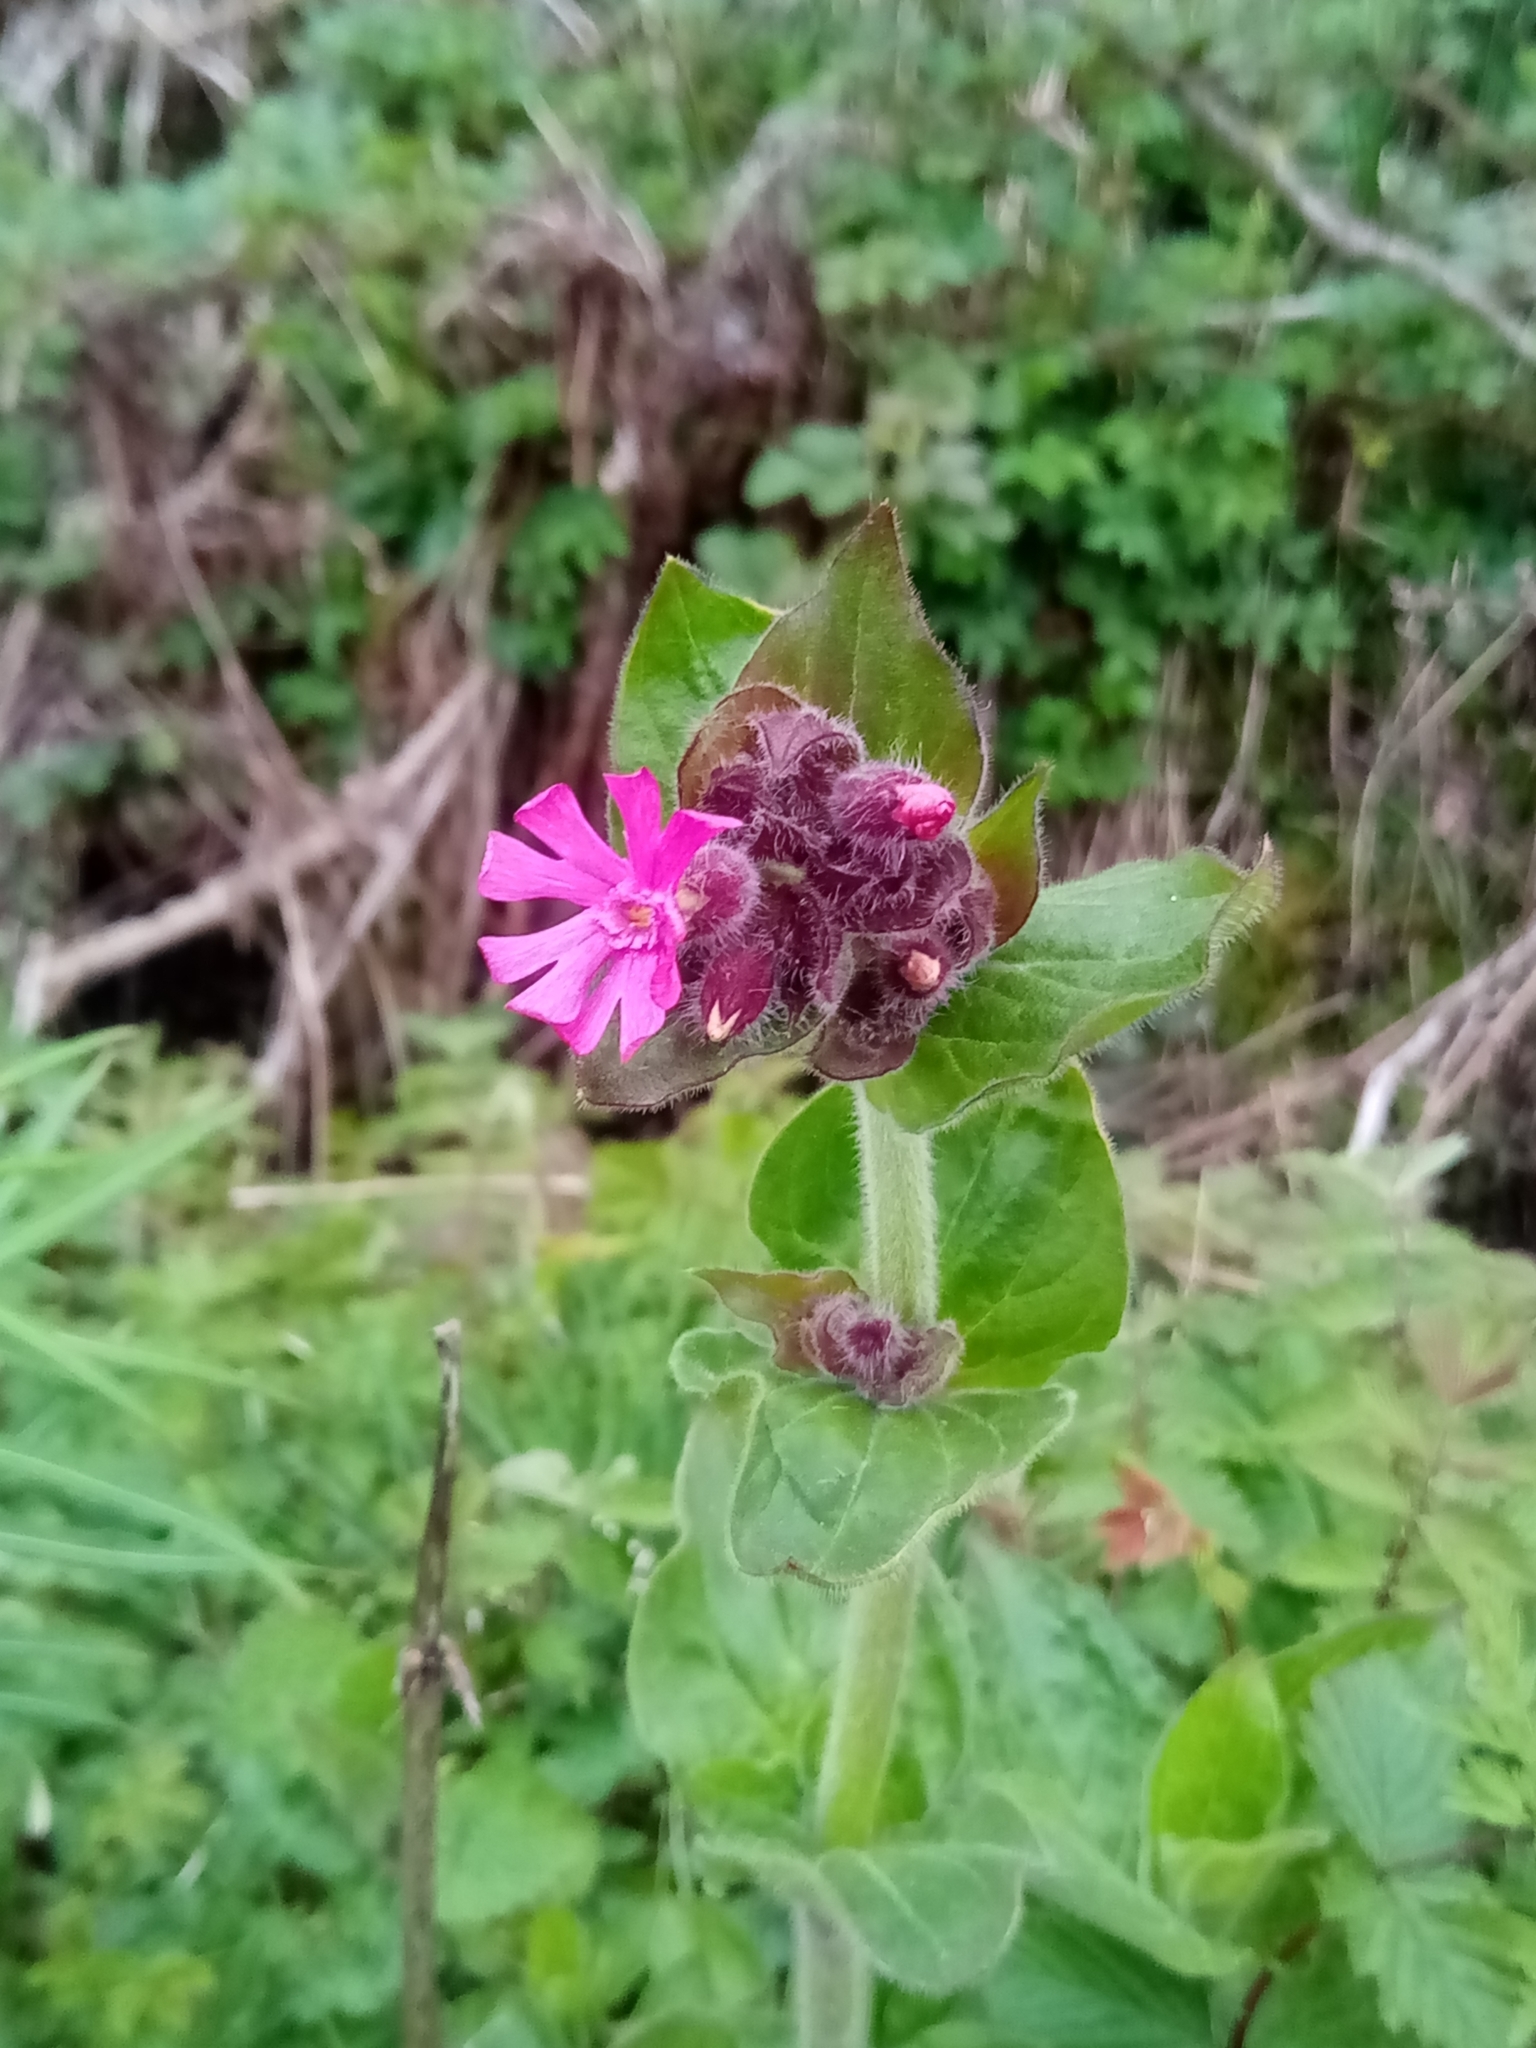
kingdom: Plantae
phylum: Tracheophyta
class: Magnoliopsida
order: Caryophyllales
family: Caryophyllaceae
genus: Silene
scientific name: Silene dioica
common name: Red campion
